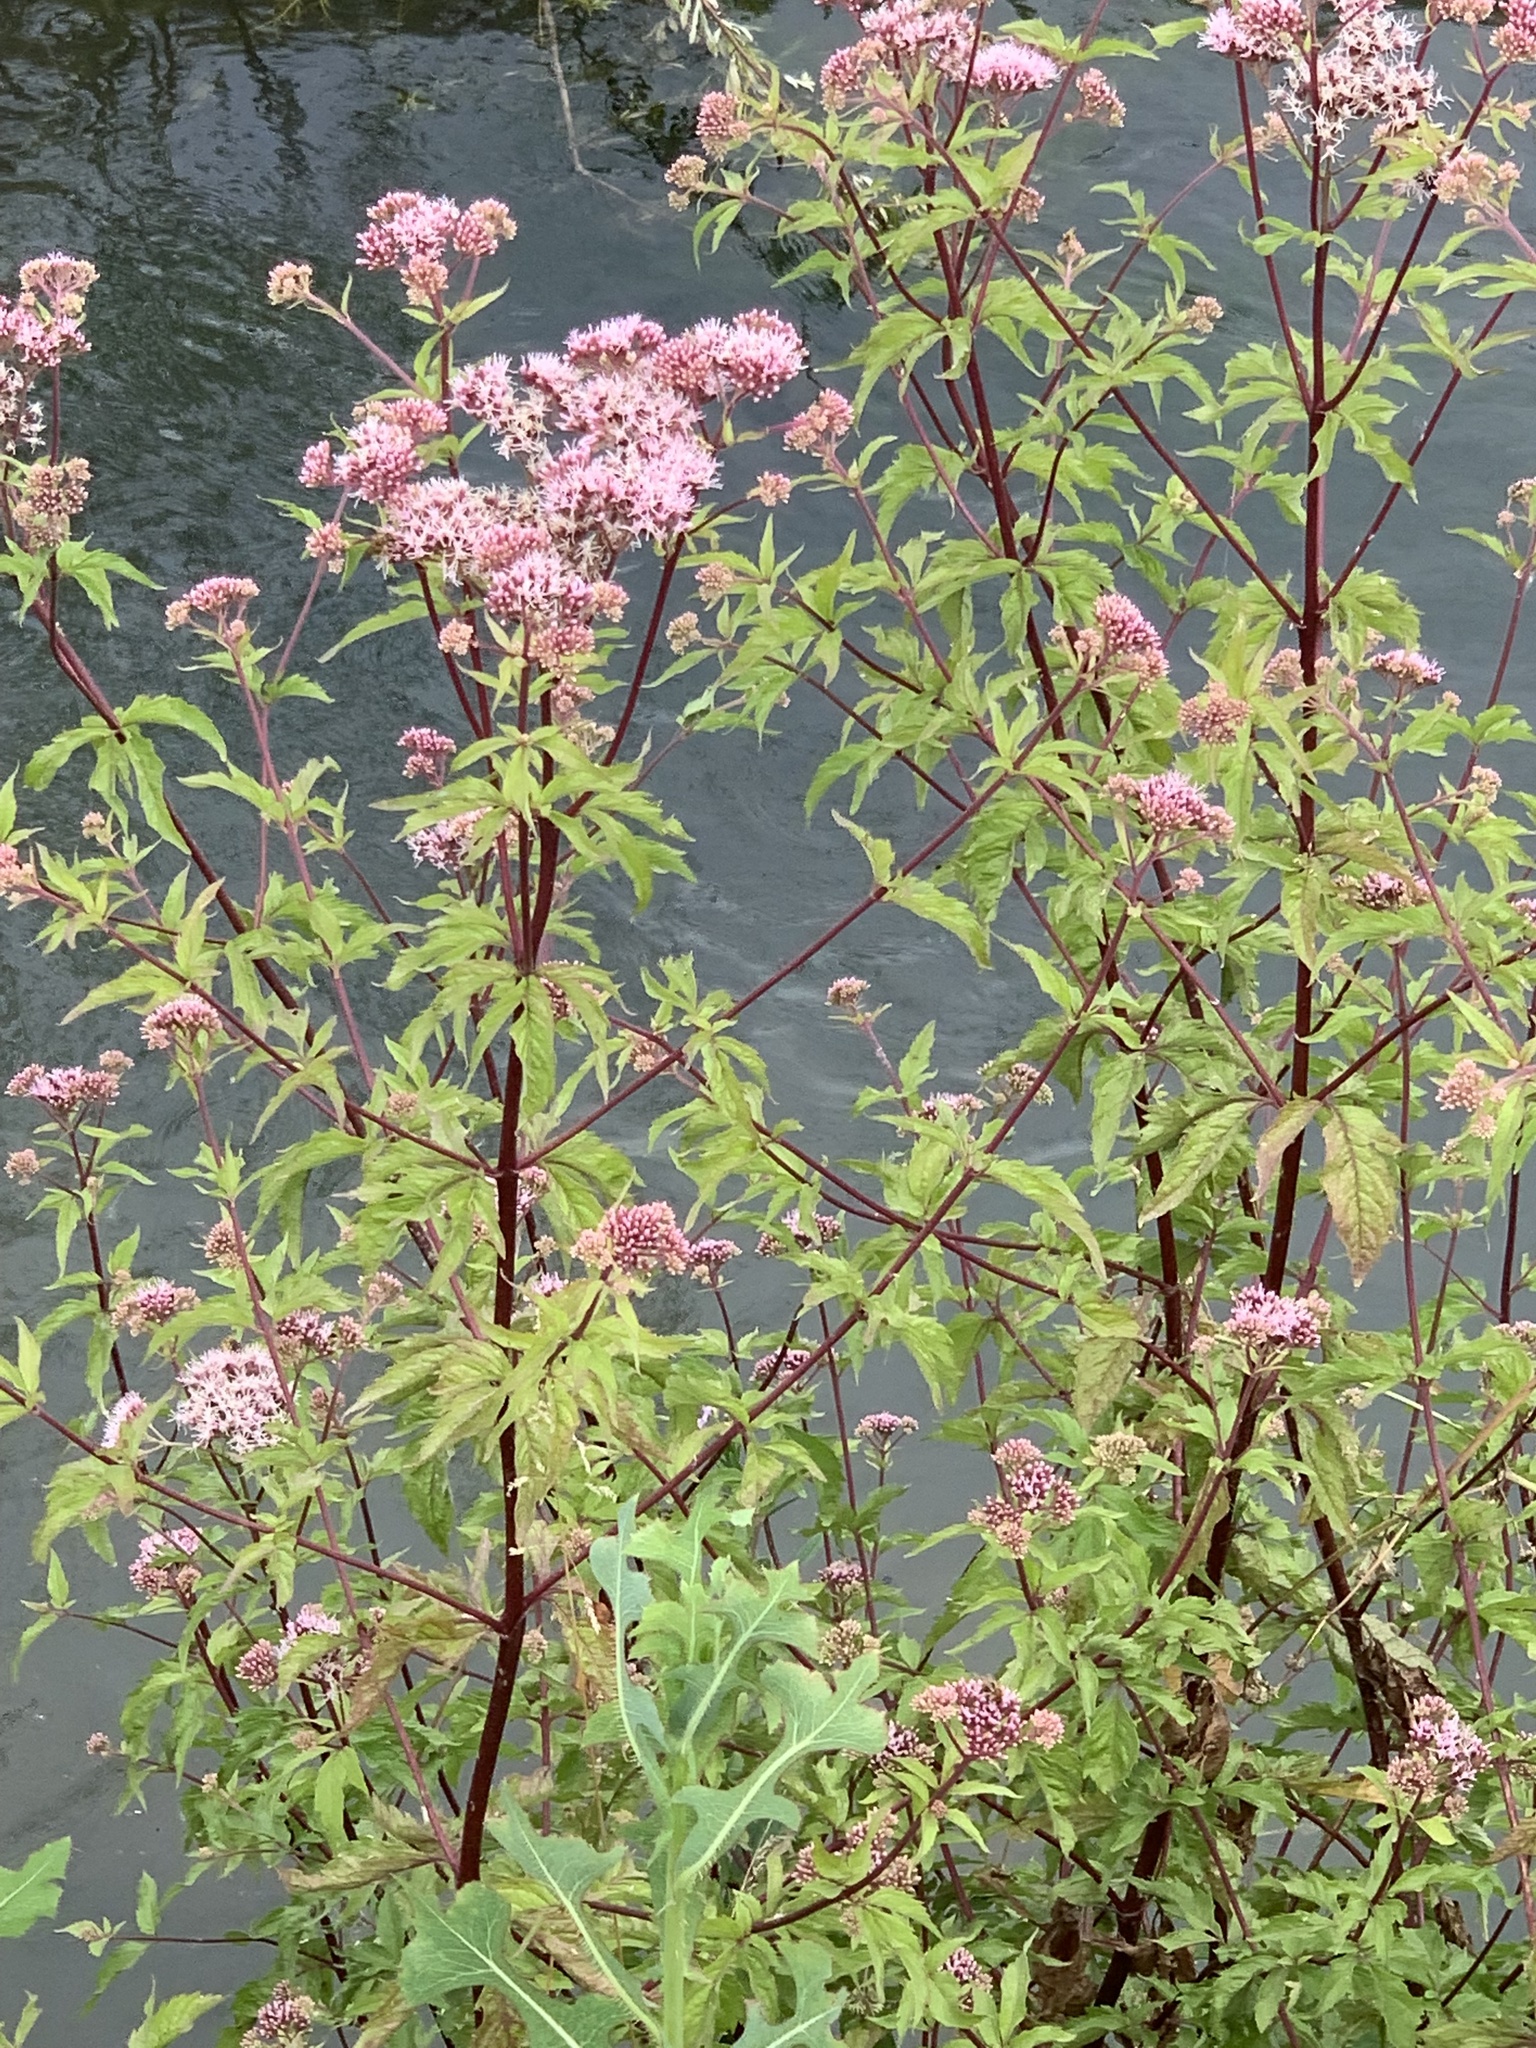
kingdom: Plantae
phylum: Tracheophyta
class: Magnoliopsida
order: Asterales
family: Asteraceae
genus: Eupatorium
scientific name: Eupatorium cannabinum
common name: Hemp-agrimony
